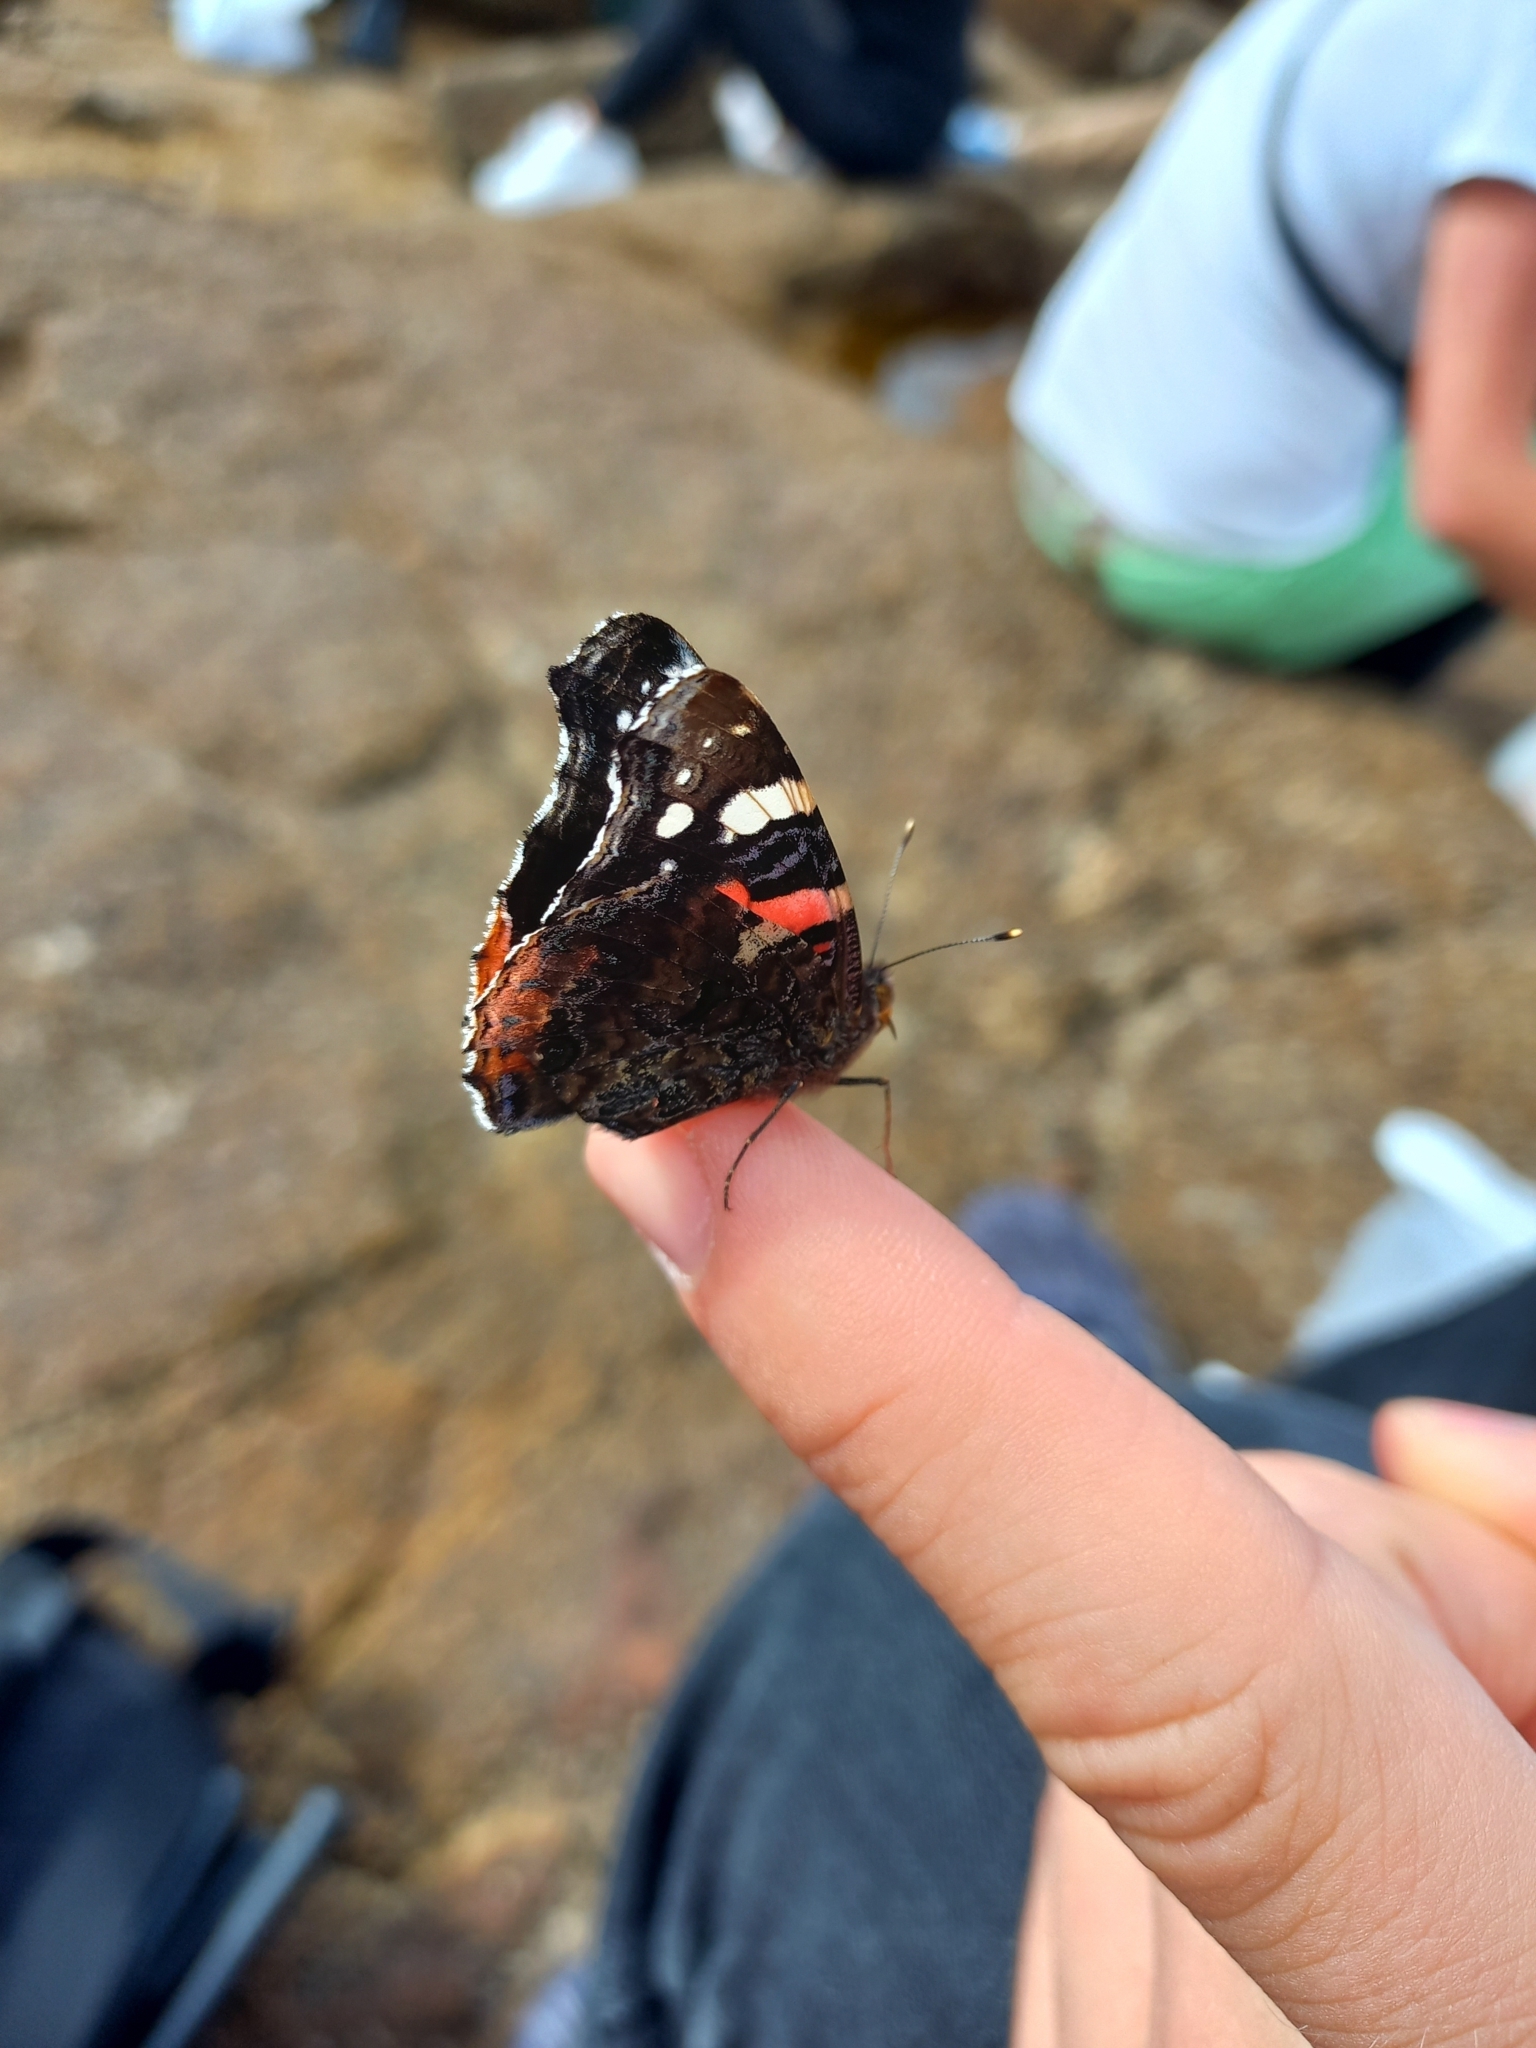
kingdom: Animalia
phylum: Arthropoda
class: Insecta
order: Lepidoptera
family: Nymphalidae
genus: Vanessa
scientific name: Vanessa atalanta
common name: Red admiral
